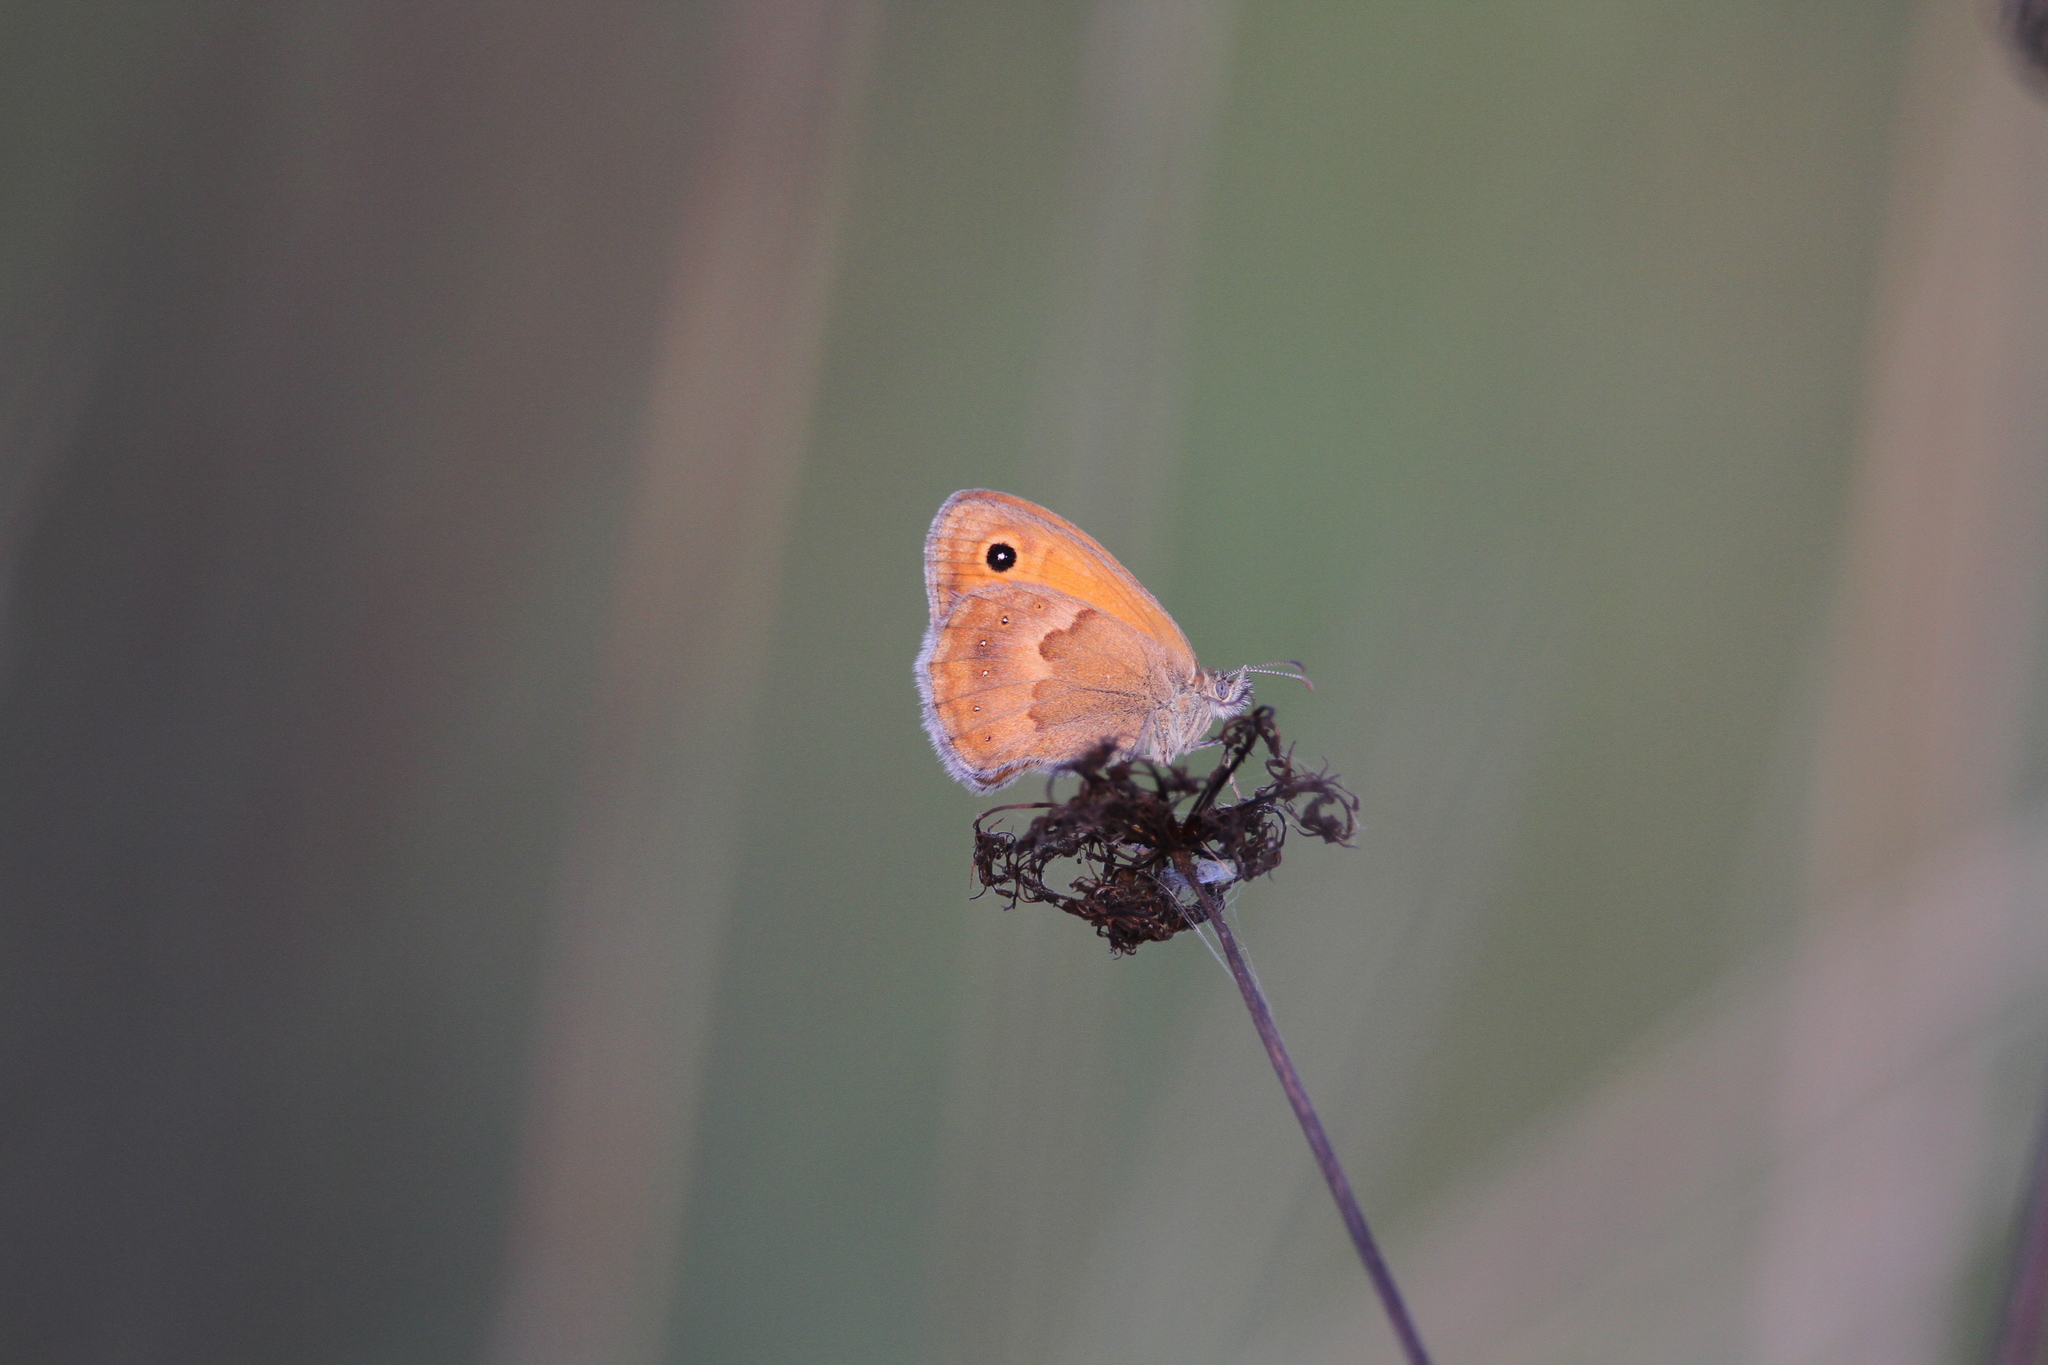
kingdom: Animalia
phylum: Arthropoda
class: Insecta
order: Lepidoptera
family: Nymphalidae
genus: Coenonympha
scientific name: Coenonympha pamphilus
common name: Small heath
